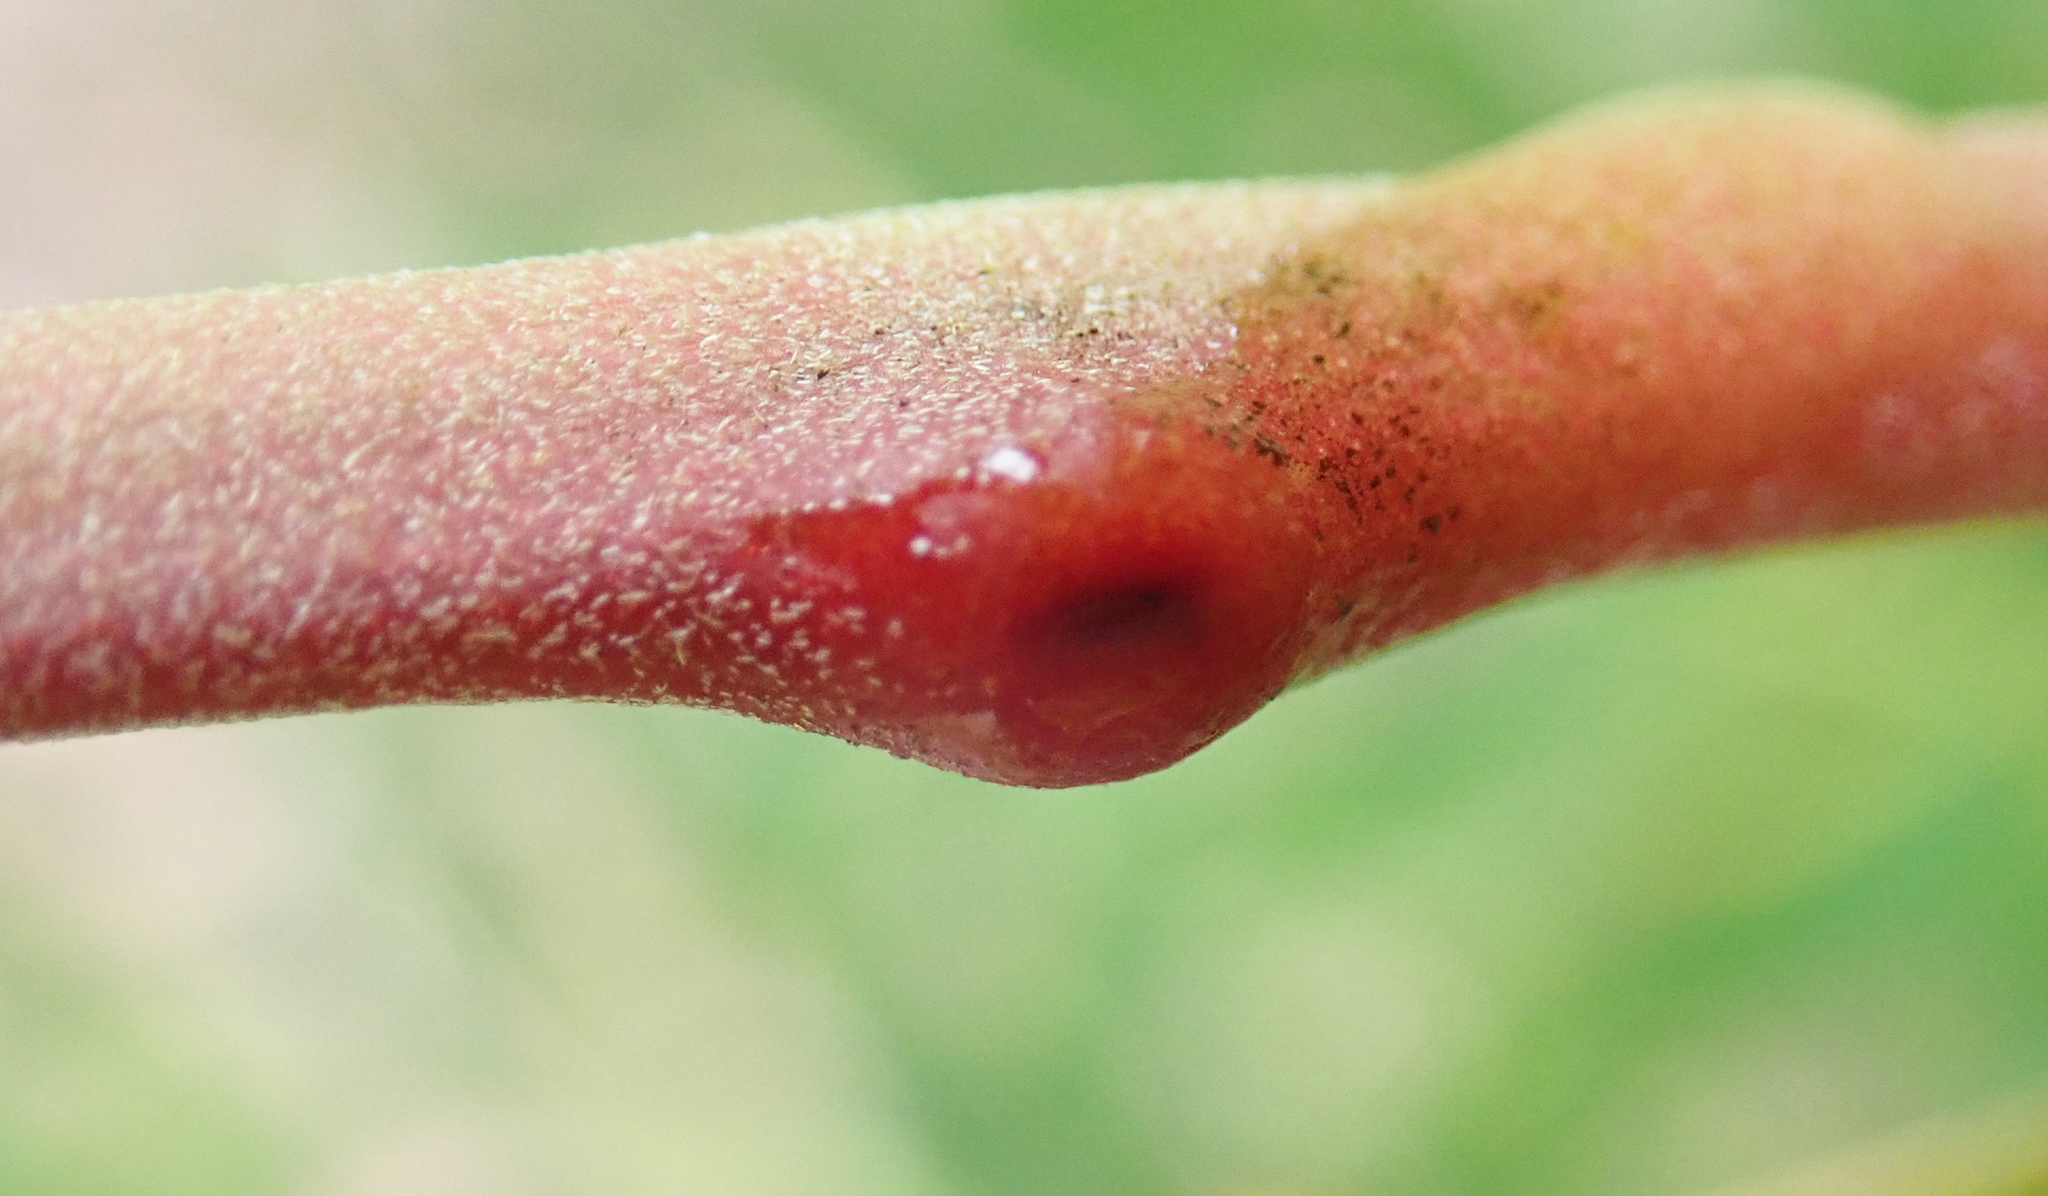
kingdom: Plantae
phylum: Tracheophyta
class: Magnoliopsida
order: Fabales
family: Fabaceae
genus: Acacia
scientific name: Acacia elata
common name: Cedar wattle
